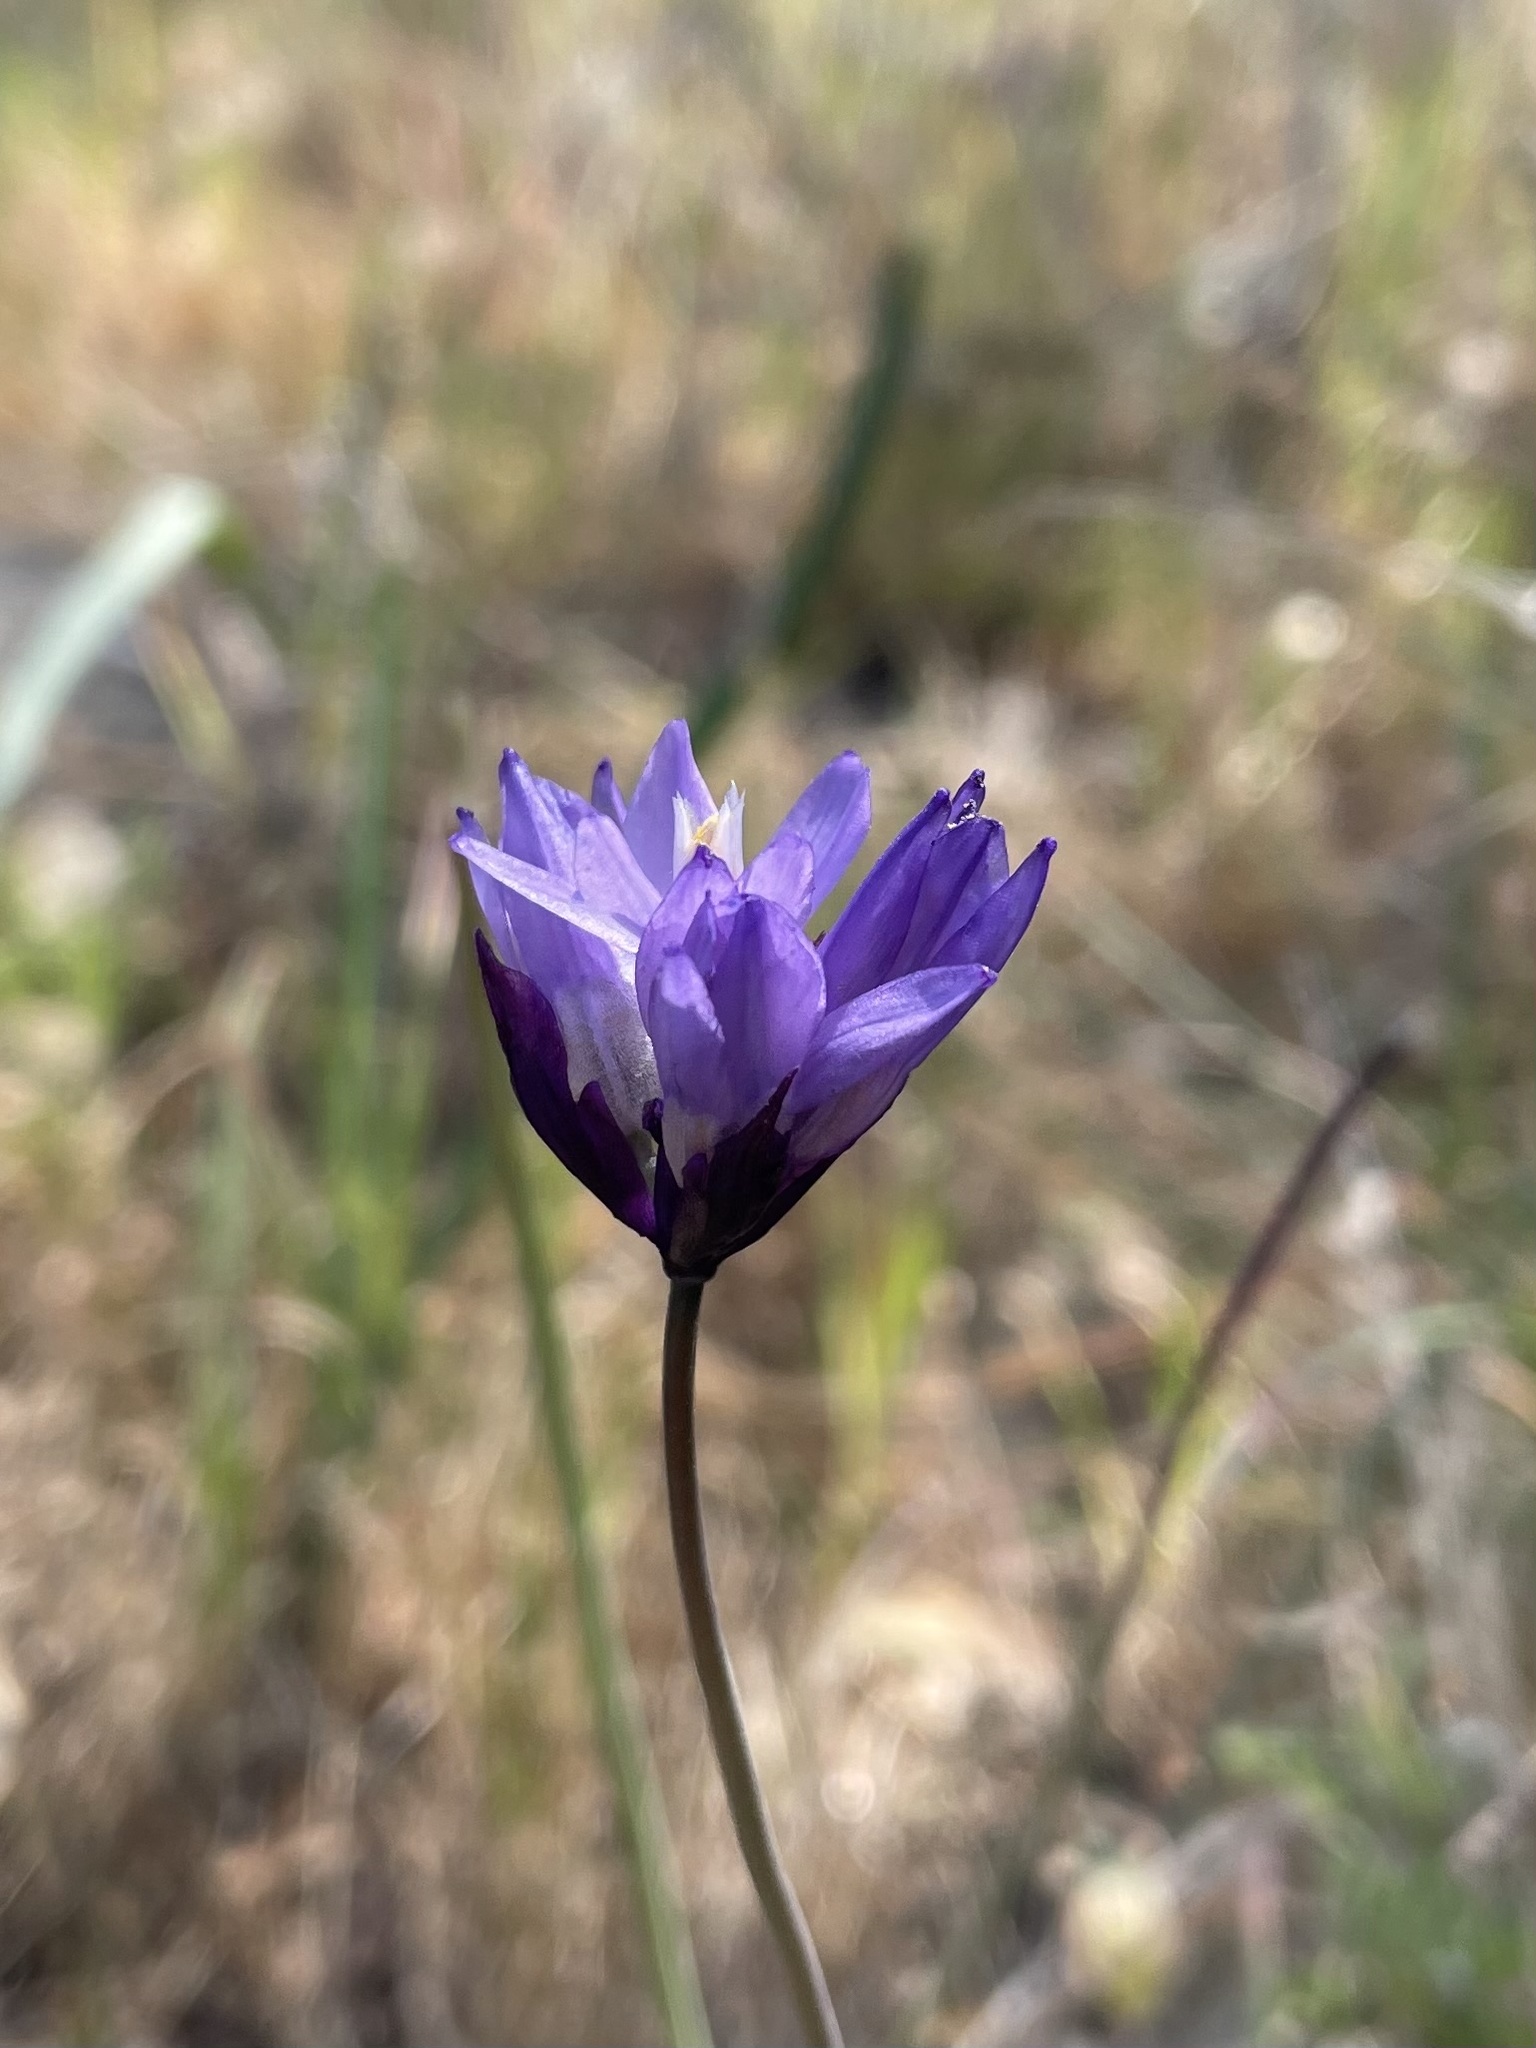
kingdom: Plantae
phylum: Tracheophyta
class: Liliopsida
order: Asparagales
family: Asparagaceae
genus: Dipterostemon
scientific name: Dipterostemon capitatus
